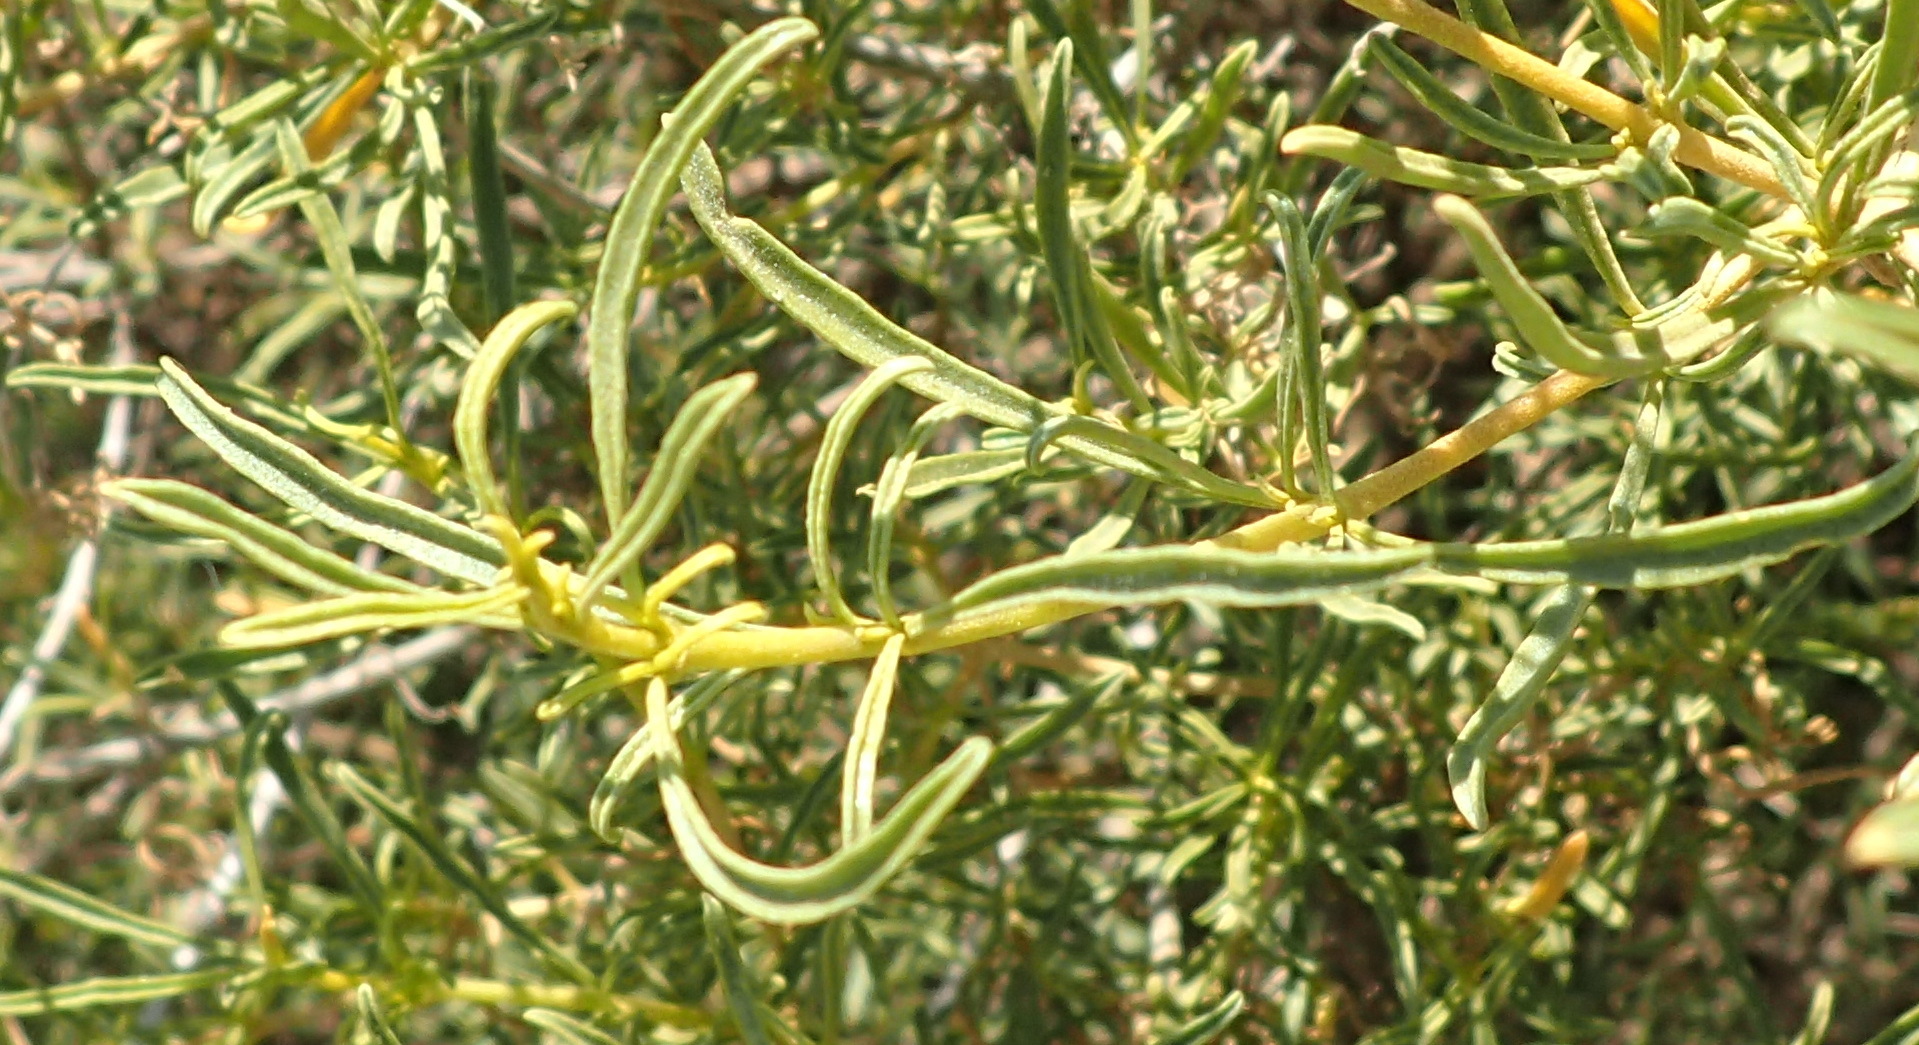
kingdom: Plantae
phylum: Tracheophyta
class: Magnoliopsida
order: Caryophyllales
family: Aizoaceae
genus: Aizoon
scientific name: Aizoon africanum
